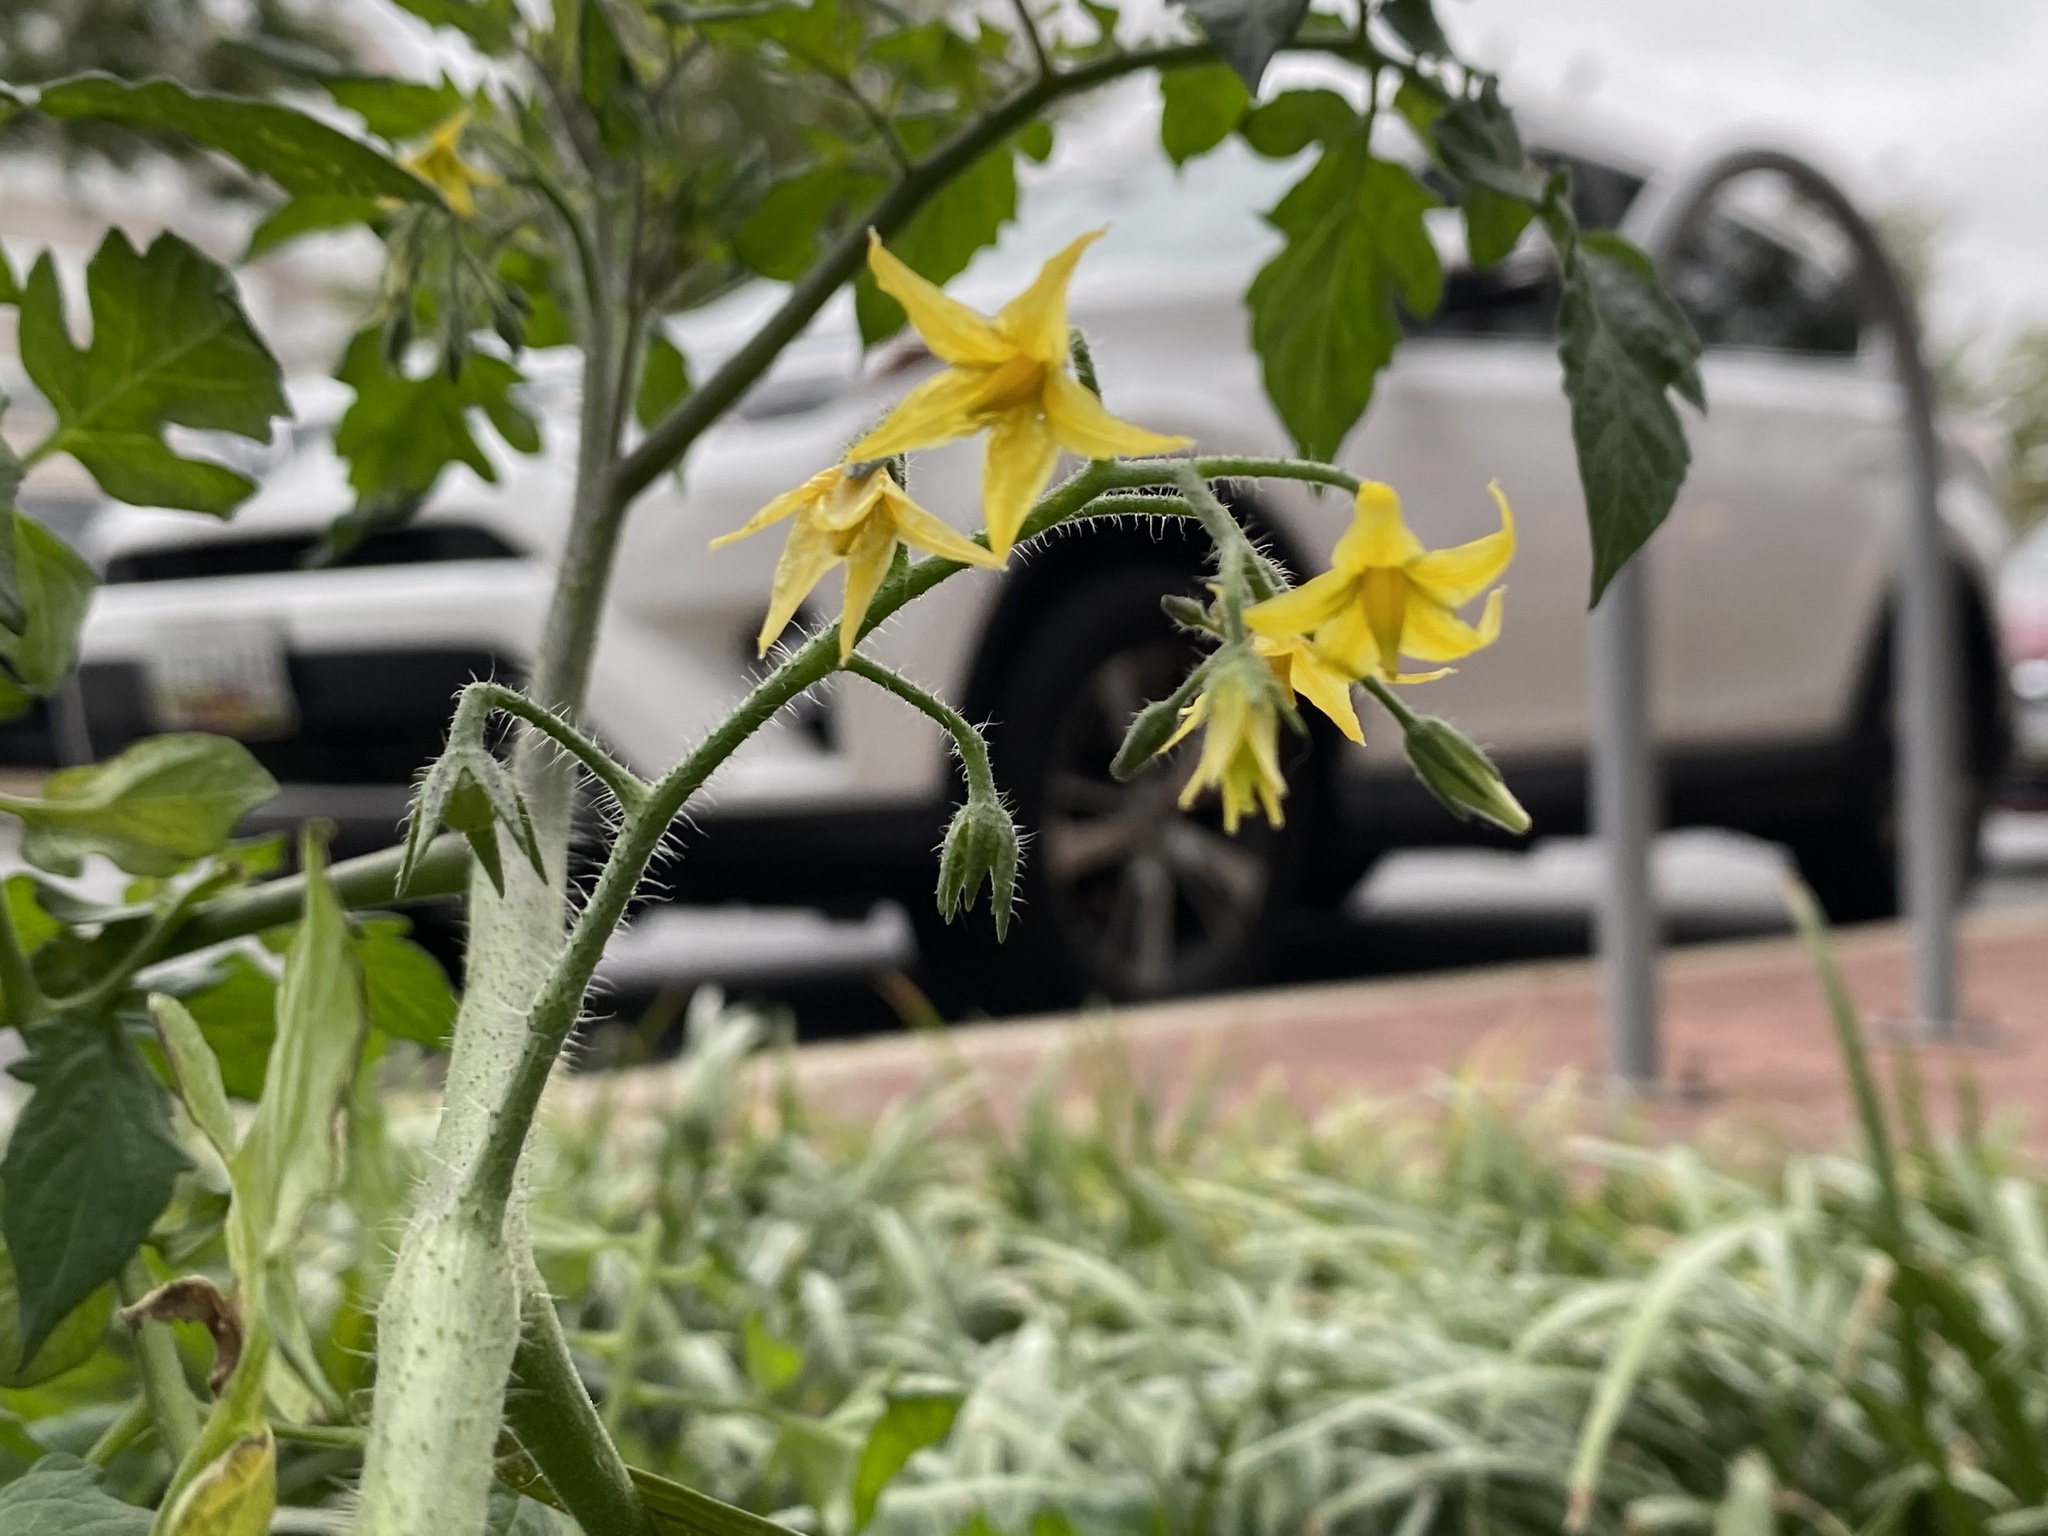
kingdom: Plantae
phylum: Tracheophyta
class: Magnoliopsida
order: Solanales
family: Solanaceae
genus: Solanum
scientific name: Solanum lycopersicum
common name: Garden tomato
